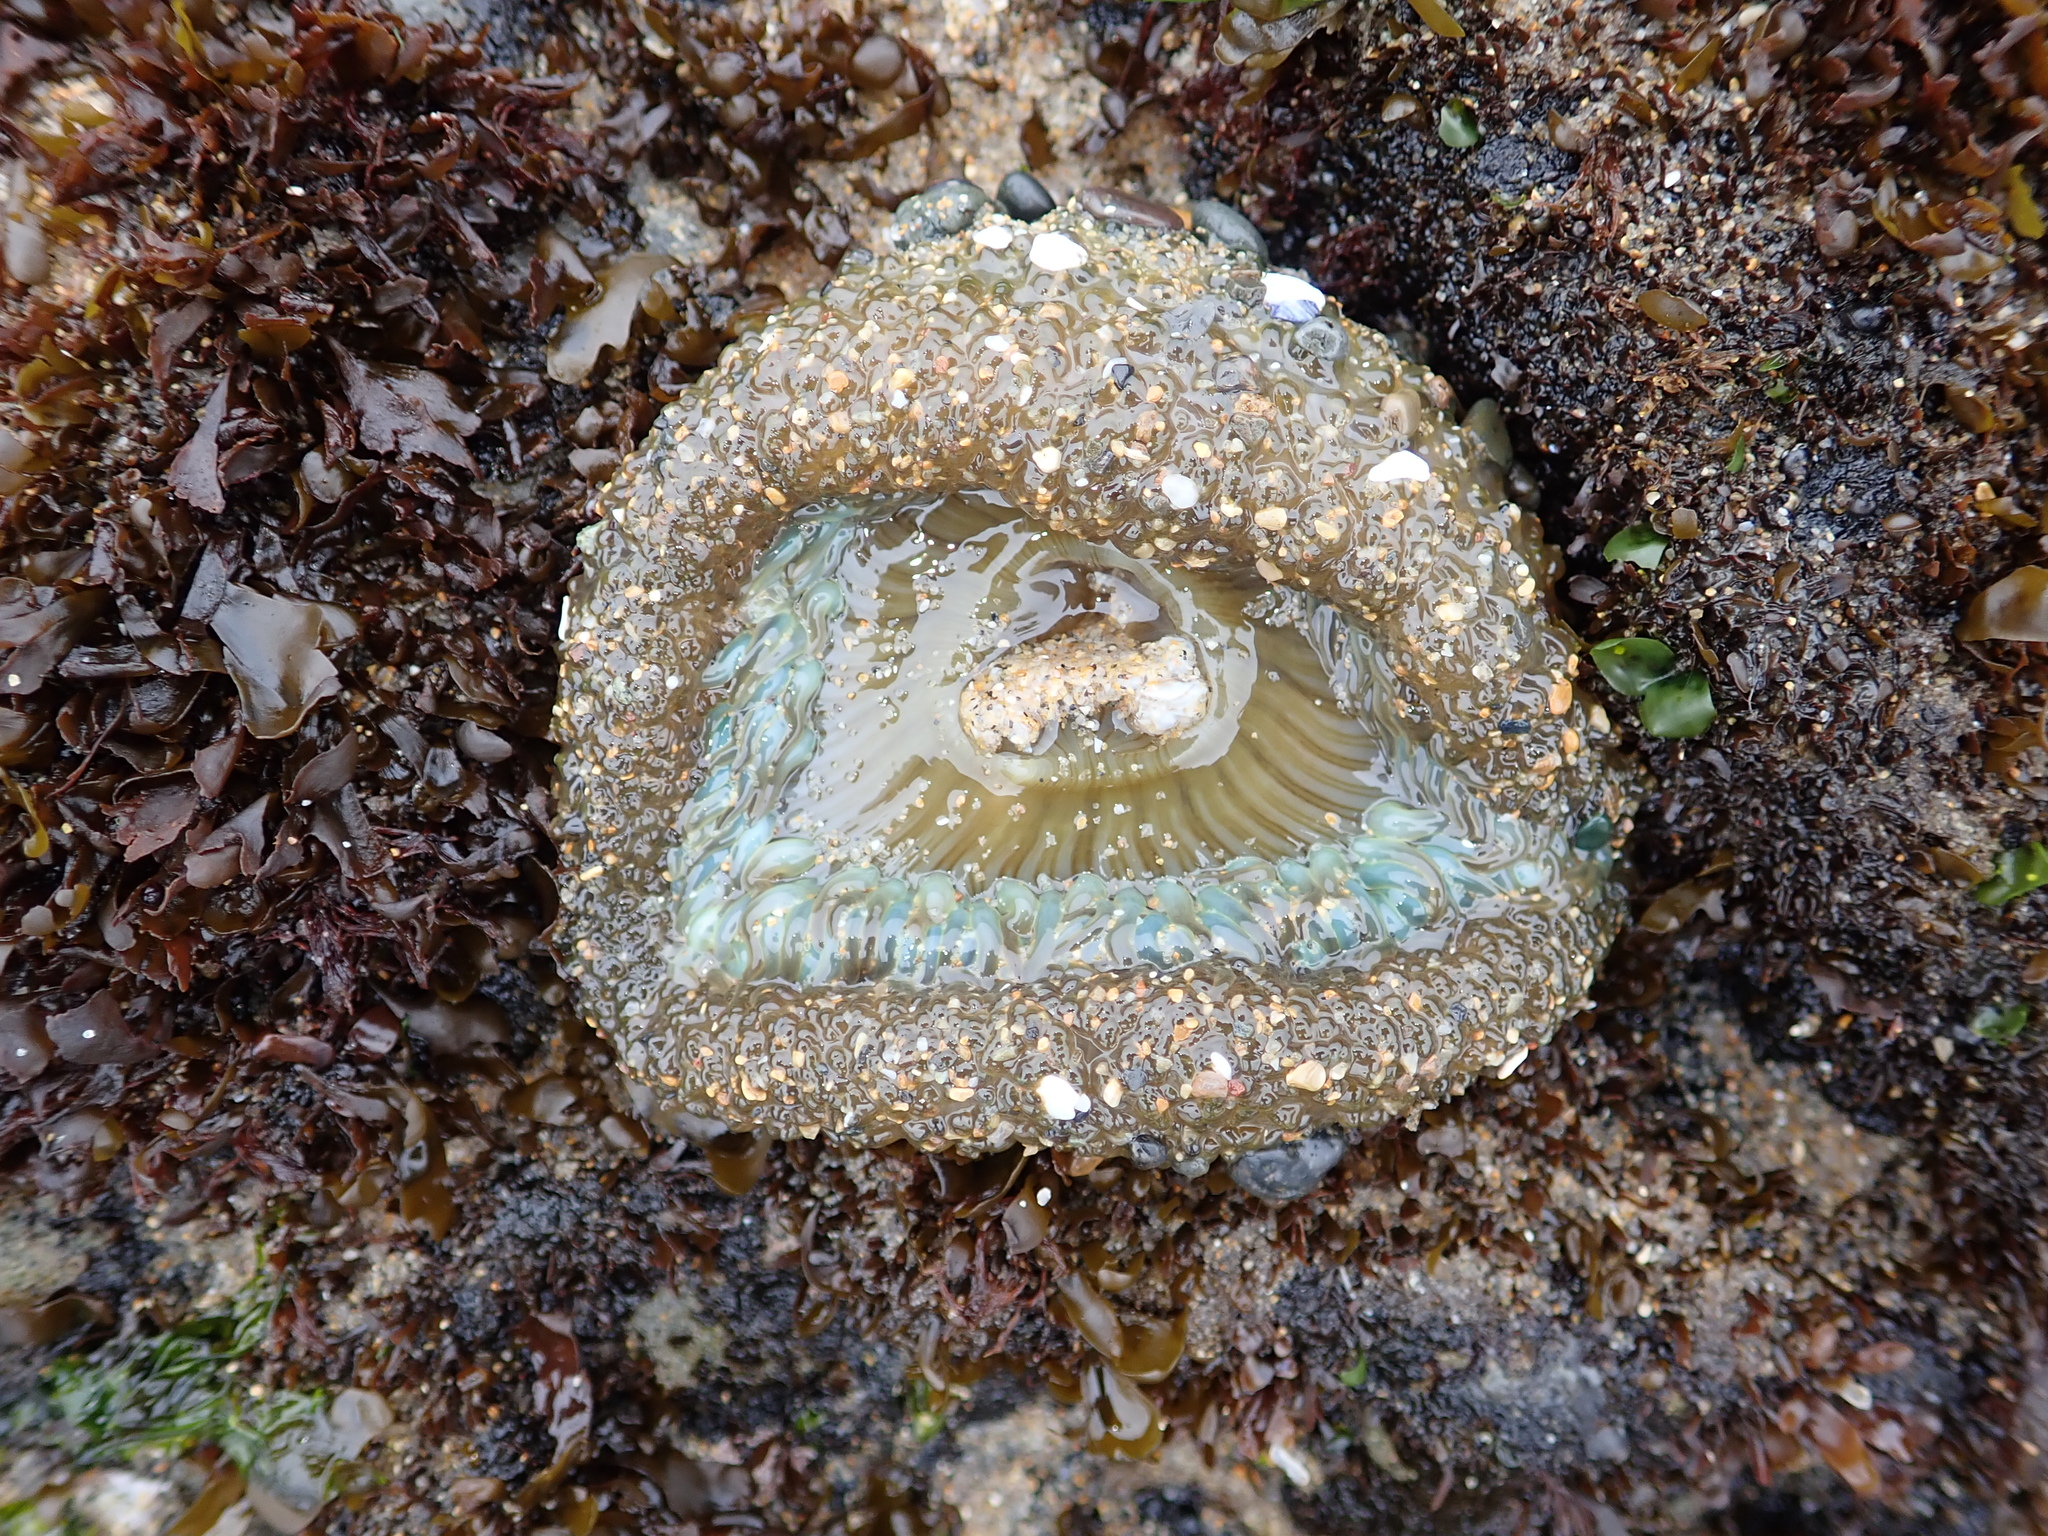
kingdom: Animalia
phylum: Cnidaria
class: Anthozoa
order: Actiniaria
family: Actiniidae
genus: Anthopleura
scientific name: Anthopleura sola
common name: Sun anemone
